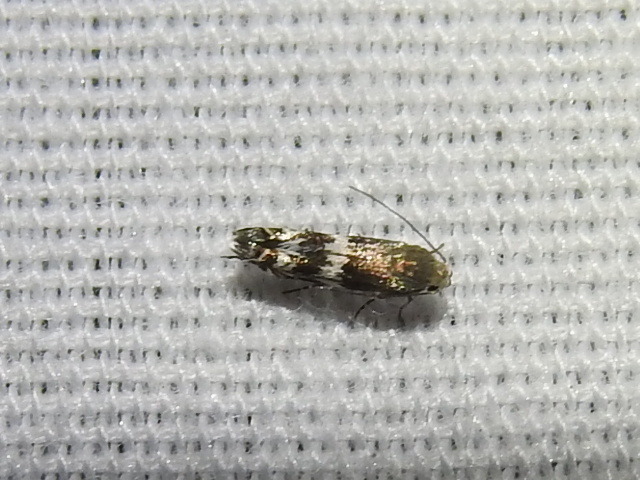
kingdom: Animalia
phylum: Arthropoda
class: Insecta
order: Lepidoptera
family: Gelechiidae
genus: Calliprora
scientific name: Calliprora sexstrigella
